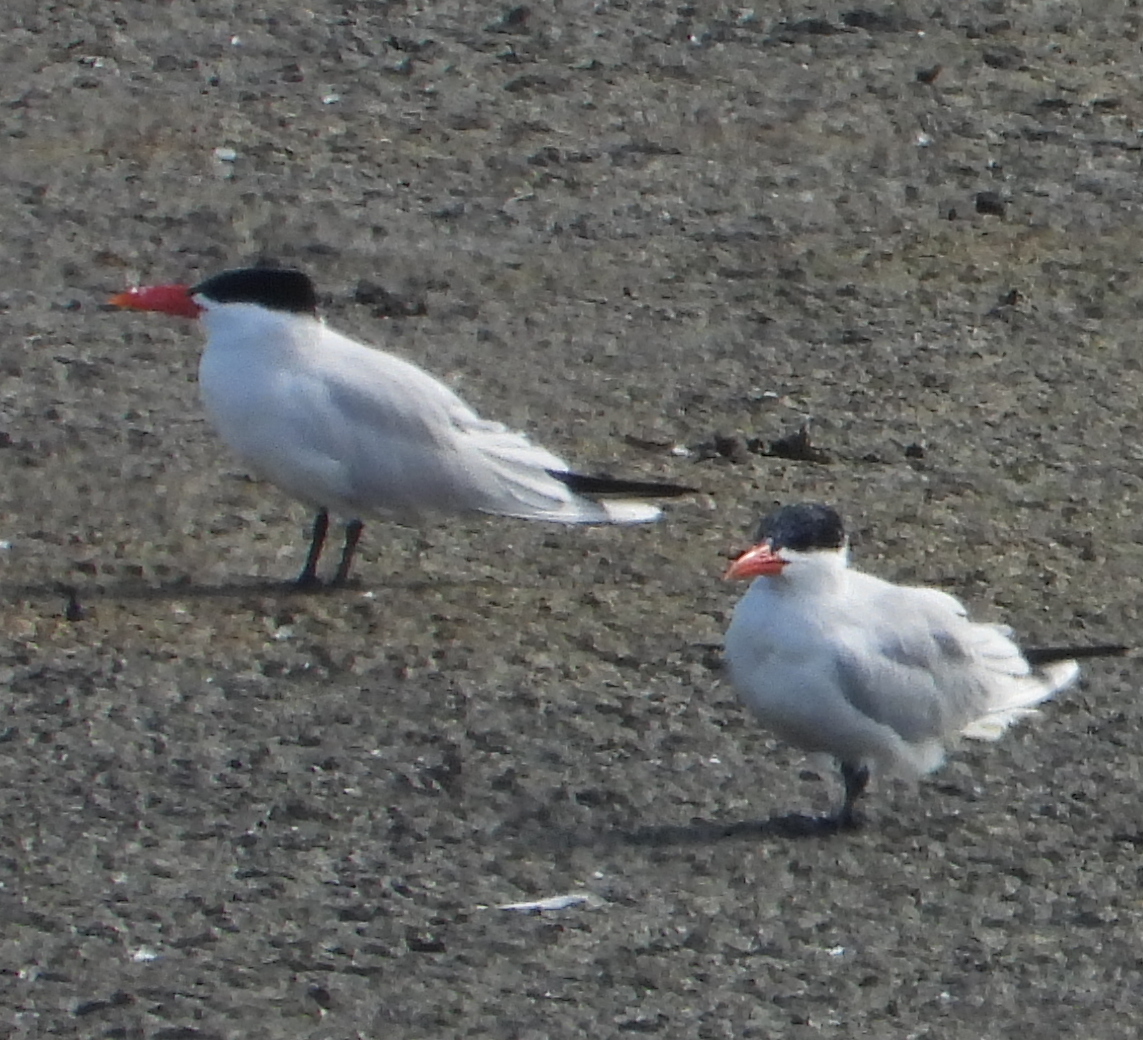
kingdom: Animalia
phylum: Chordata
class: Aves
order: Charadriiformes
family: Laridae
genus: Hydroprogne
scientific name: Hydroprogne caspia
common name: Caspian tern
